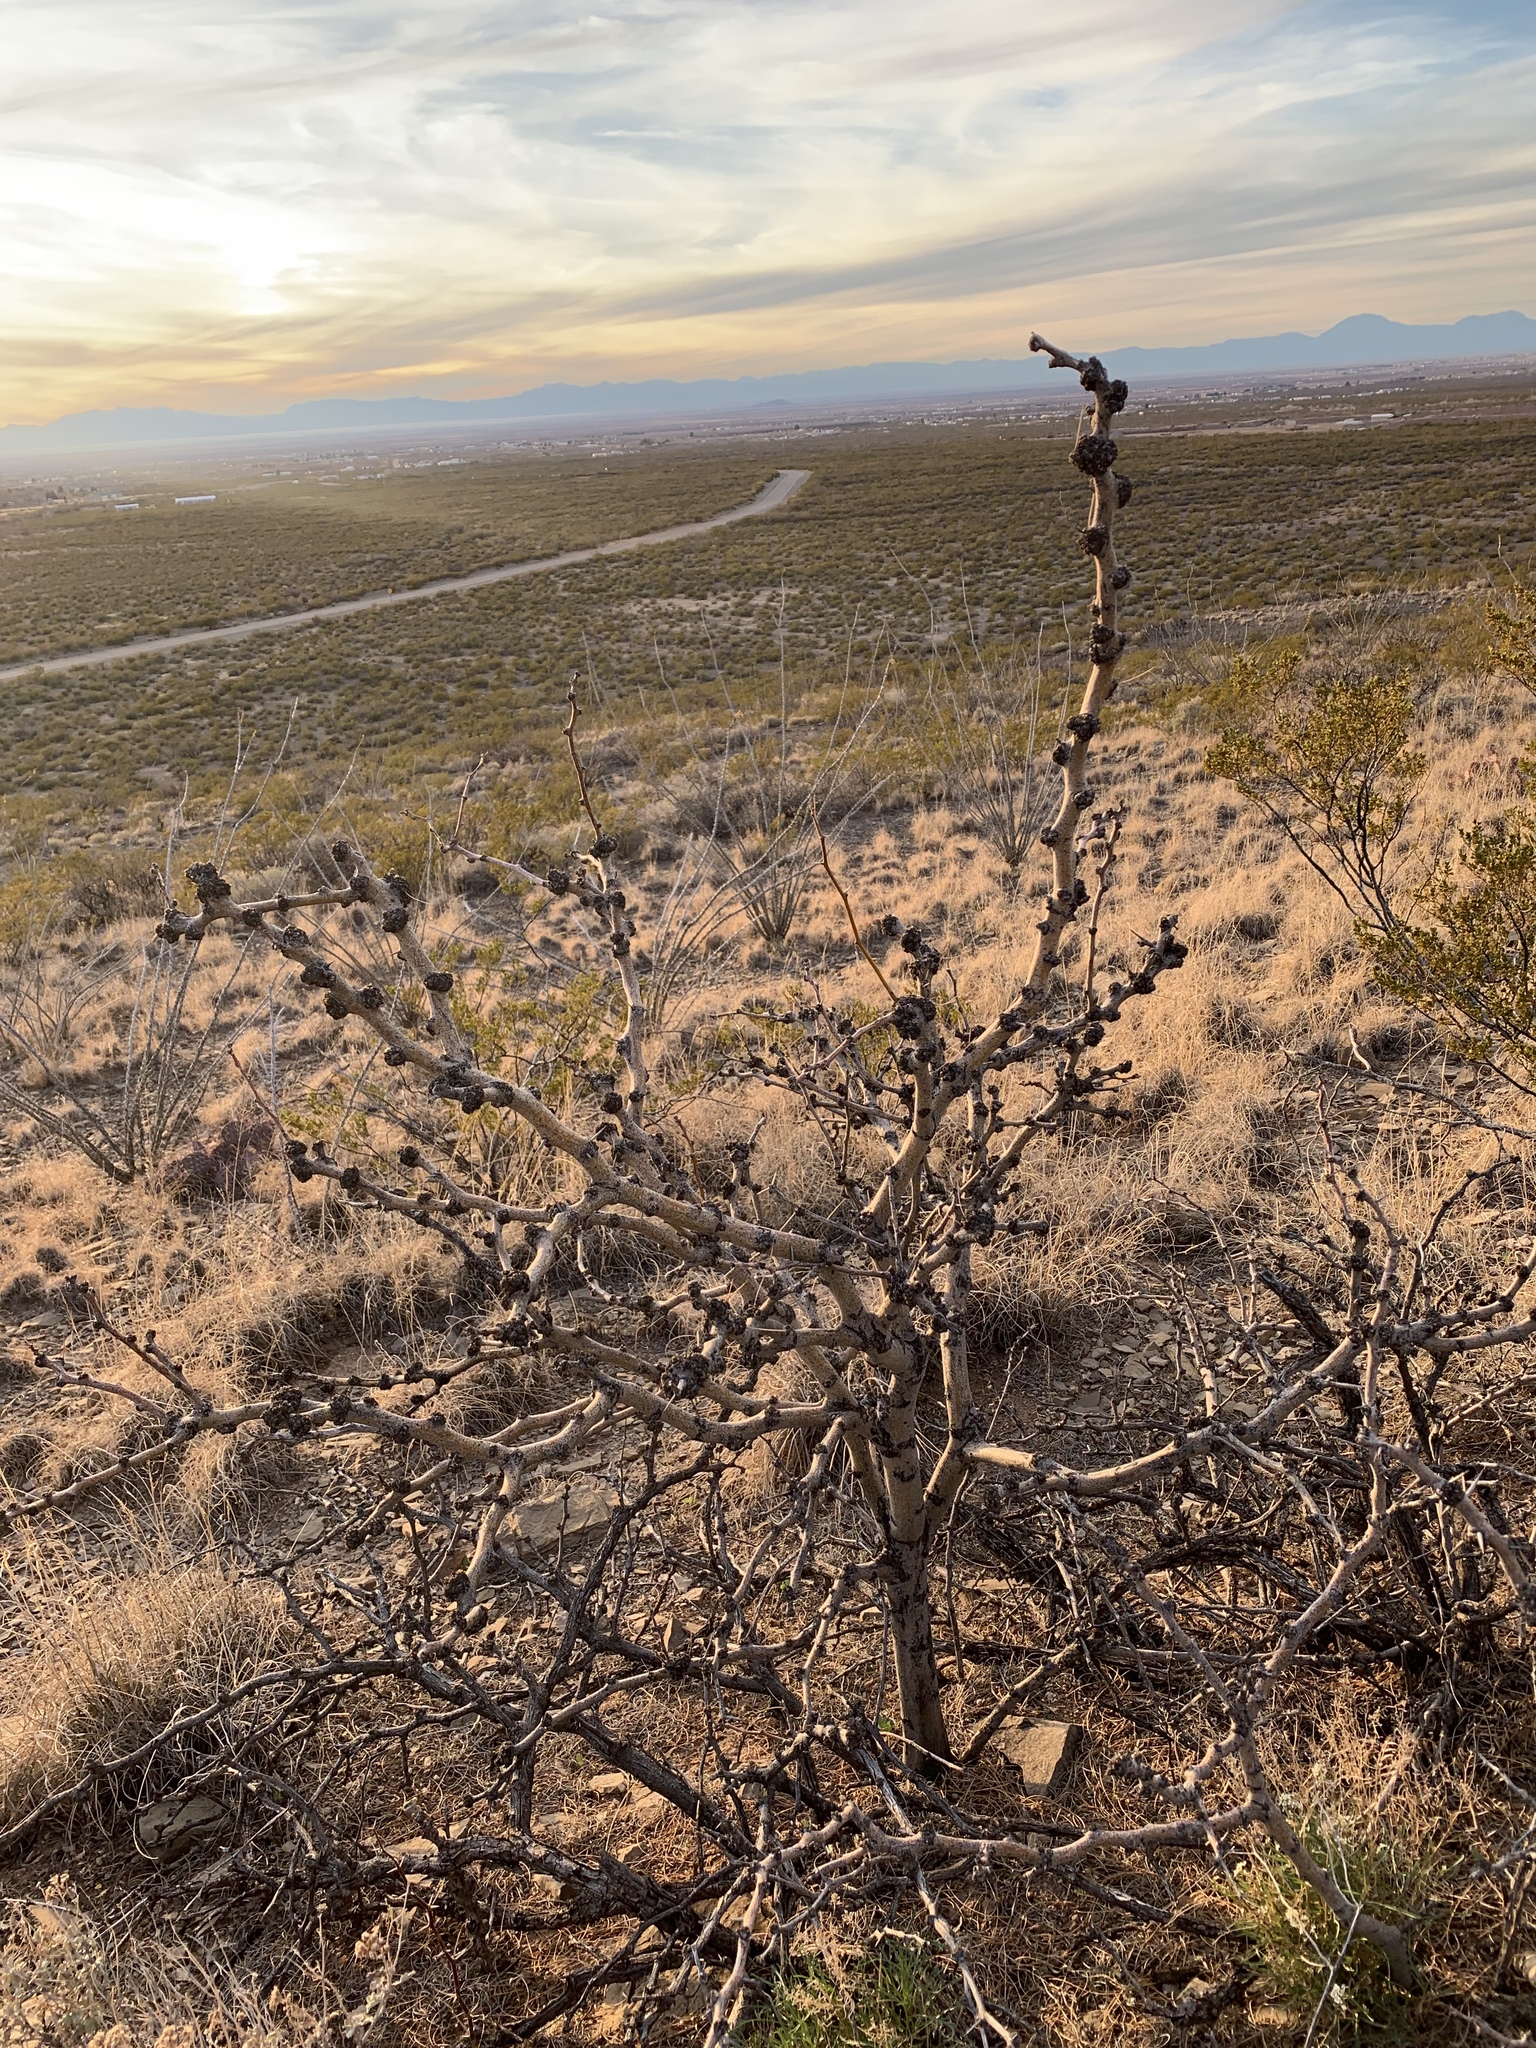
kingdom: Plantae
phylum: Tracheophyta
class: Magnoliopsida
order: Fabales
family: Fabaceae
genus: Prosopis
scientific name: Prosopis glandulosa
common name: Honey mesquite
